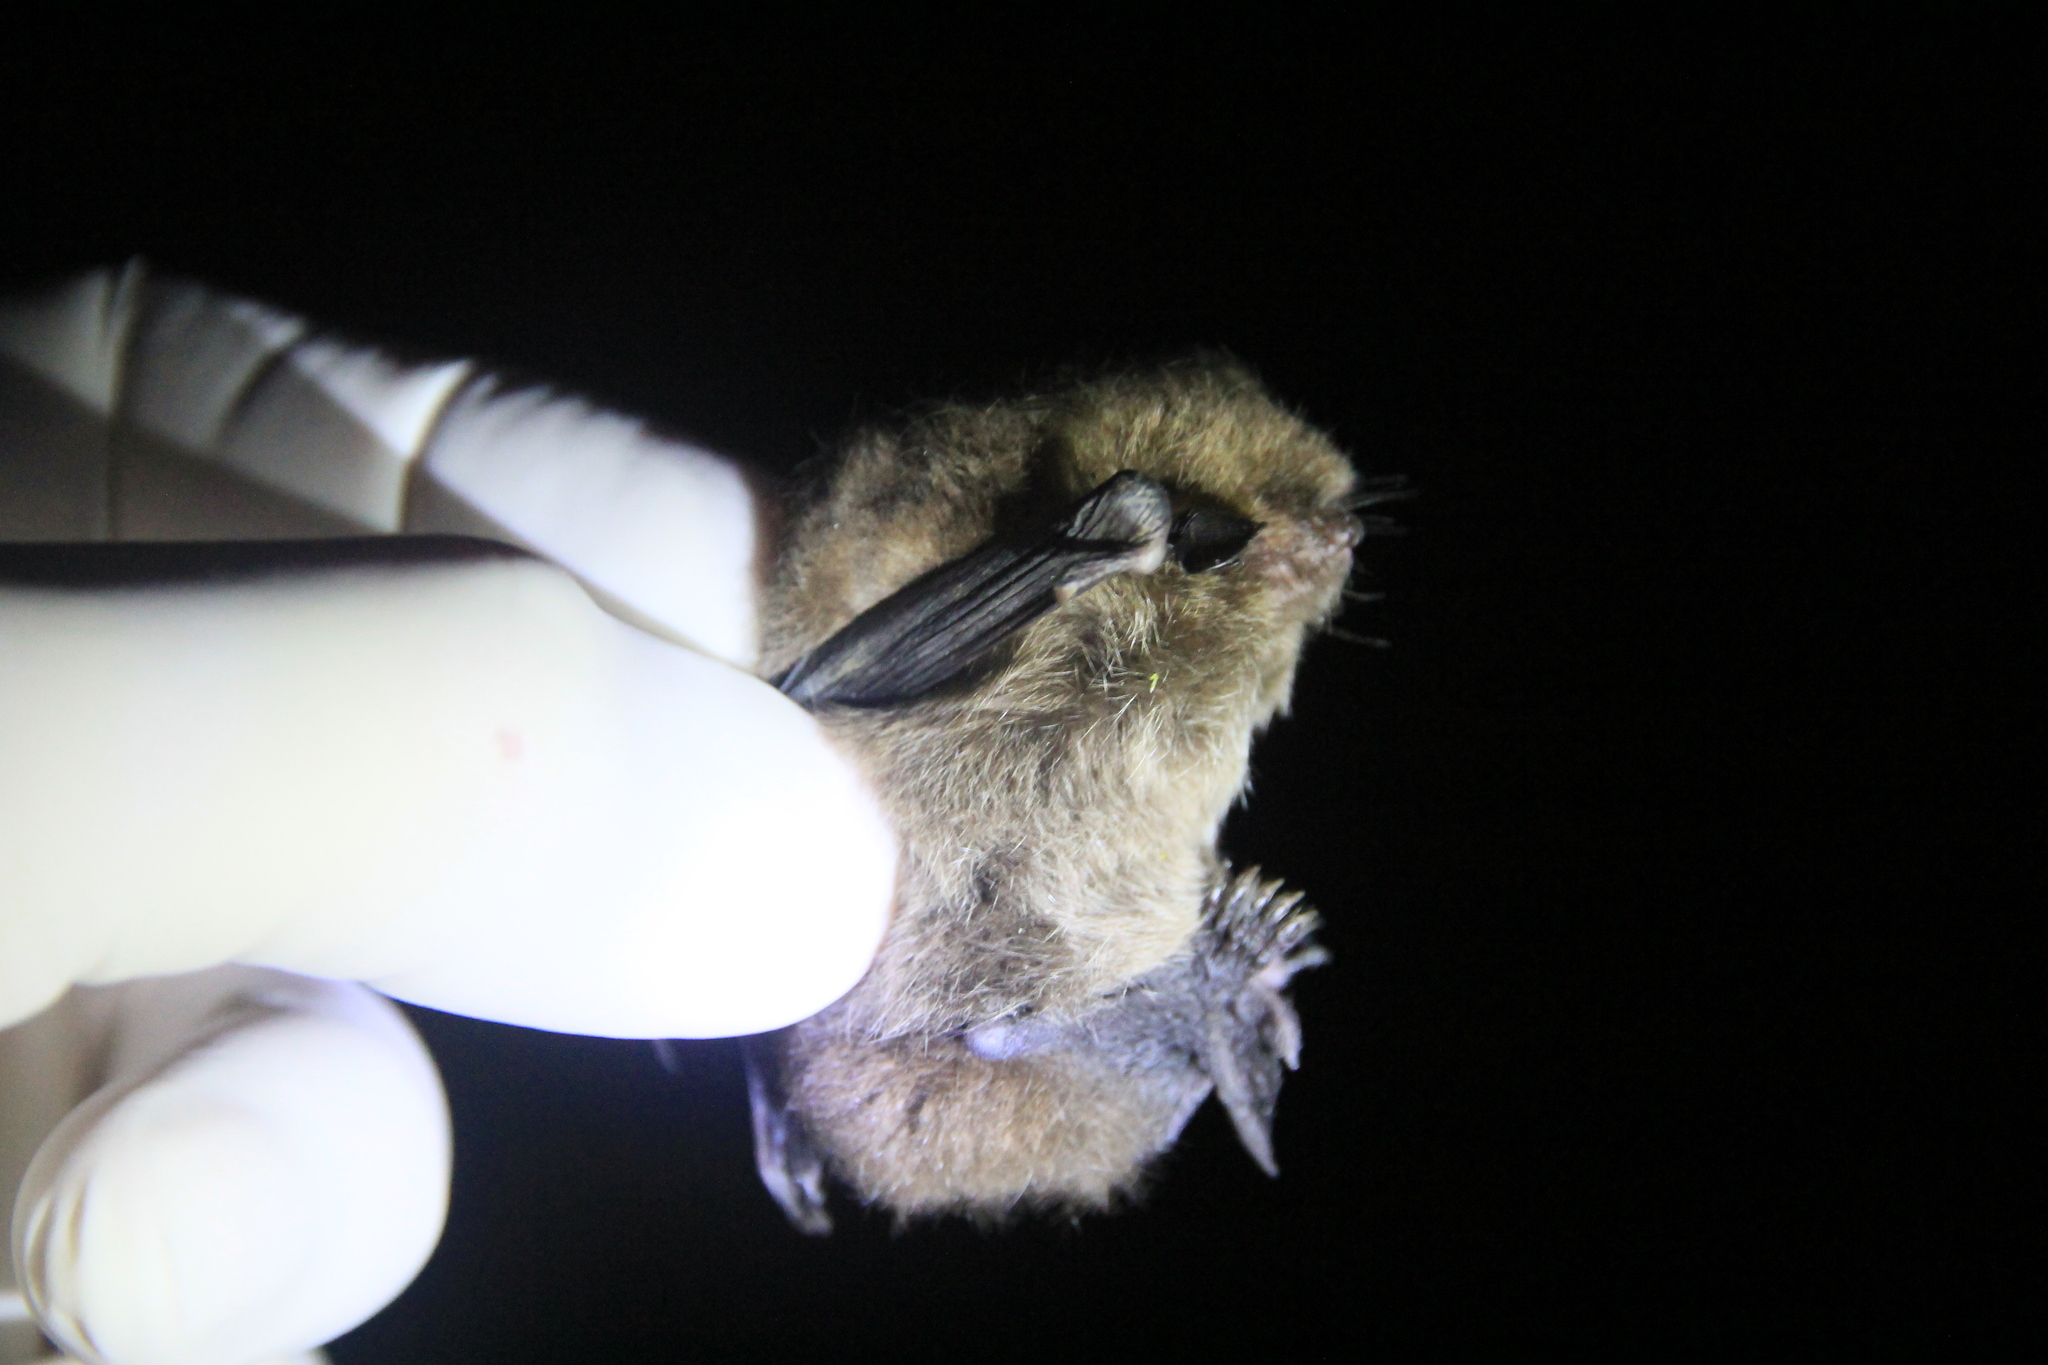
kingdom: Animalia
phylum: Chordata
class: Mammalia
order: Chiroptera
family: Vespertilionidae
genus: Myotis
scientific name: Myotis chiloensis
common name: Chilean myotis
